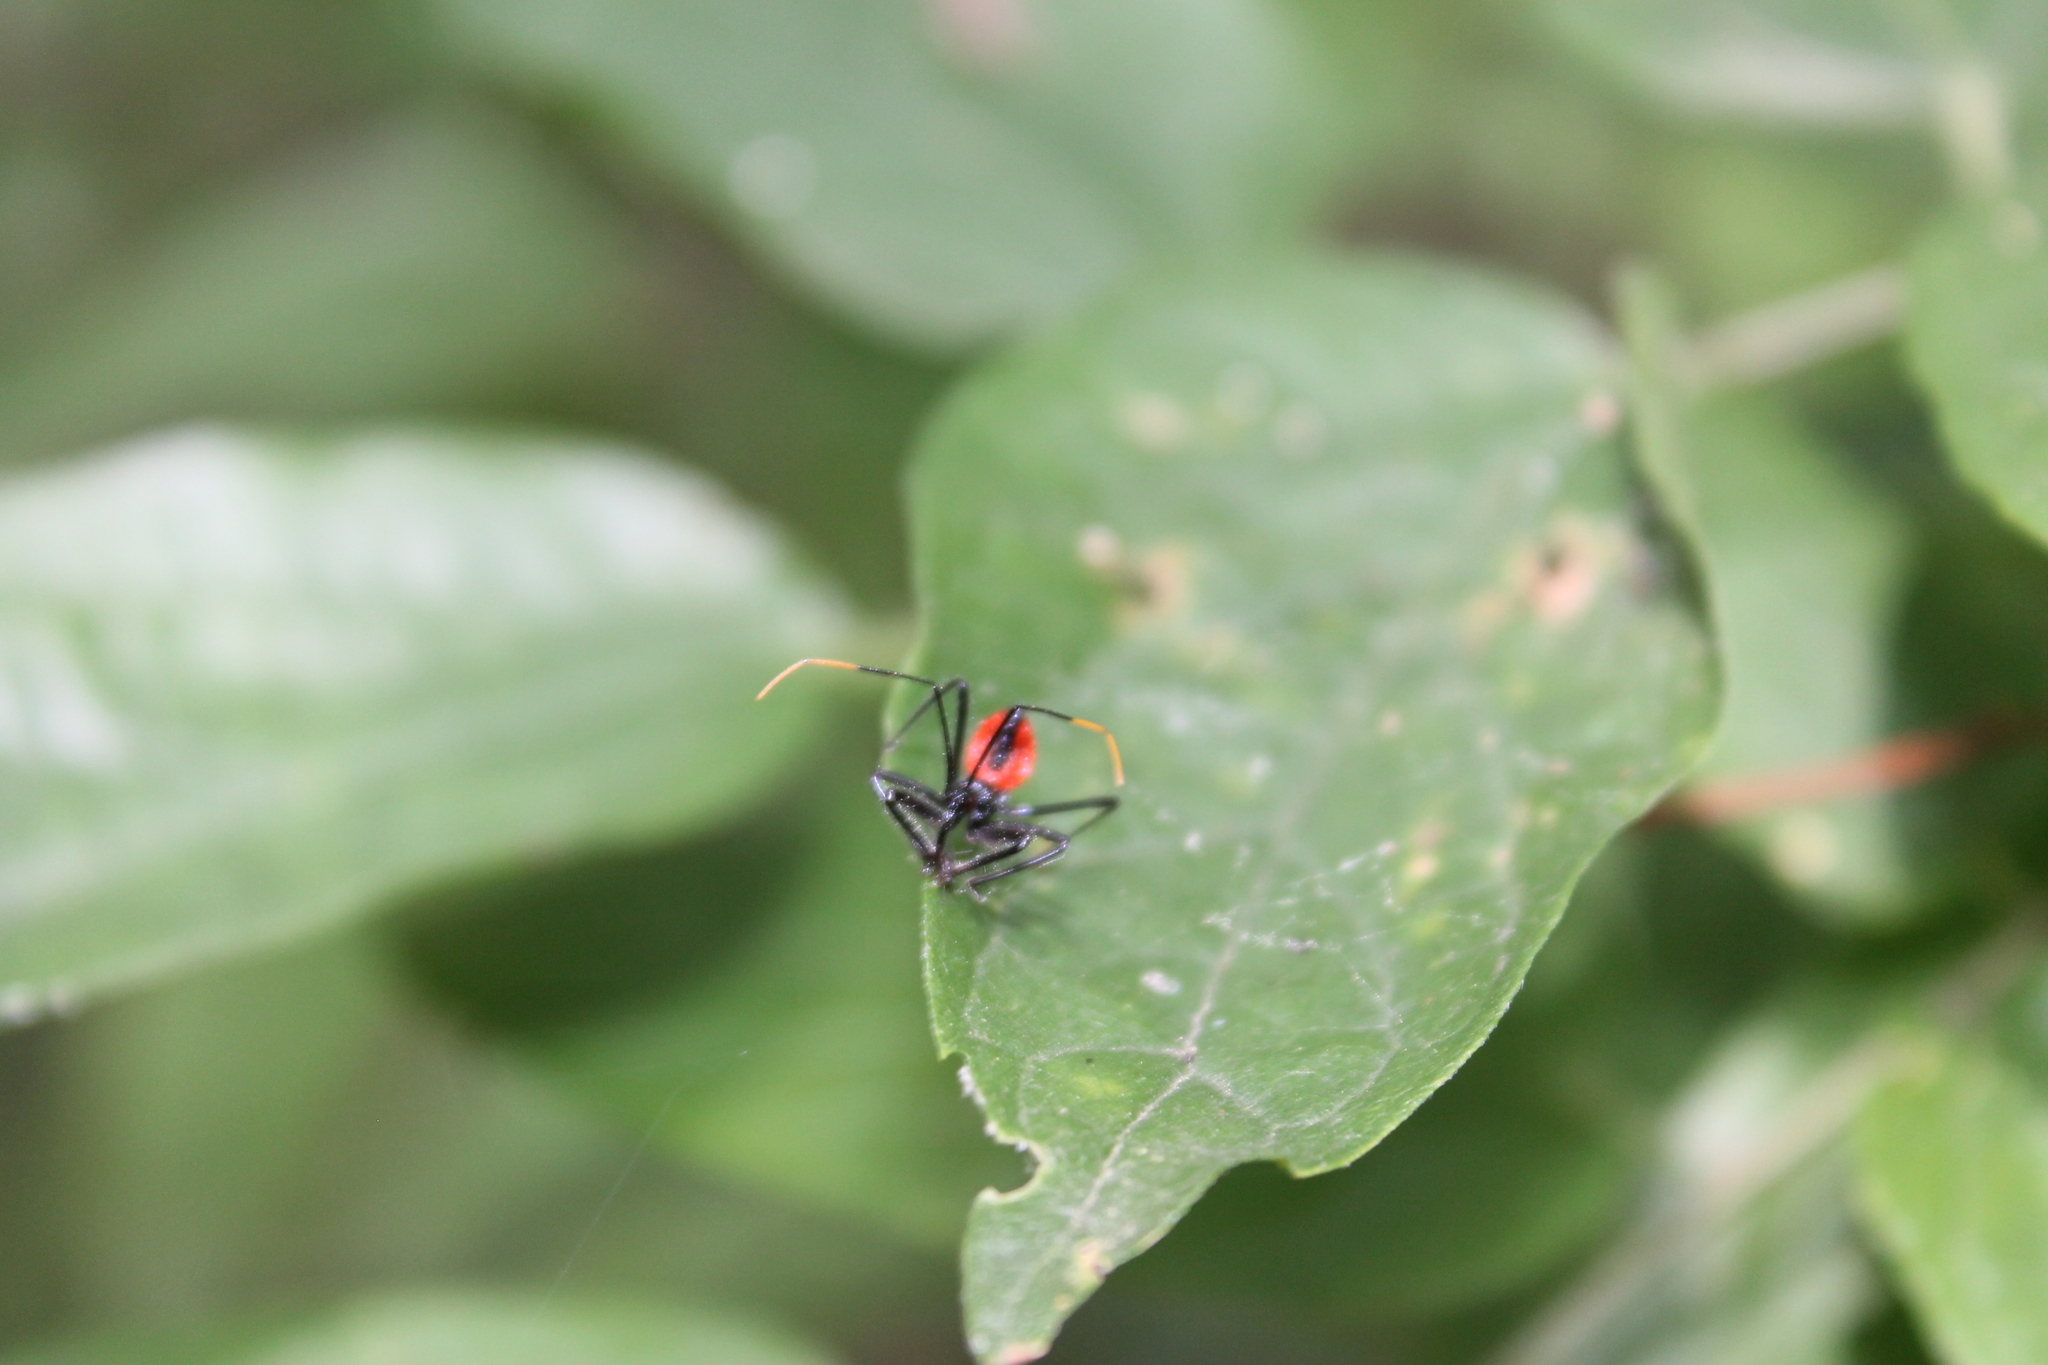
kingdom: Animalia
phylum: Arthropoda
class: Insecta
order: Hemiptera
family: Reduviidae
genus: Arilus
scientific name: Arilus cristatus
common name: North american wheel bug
